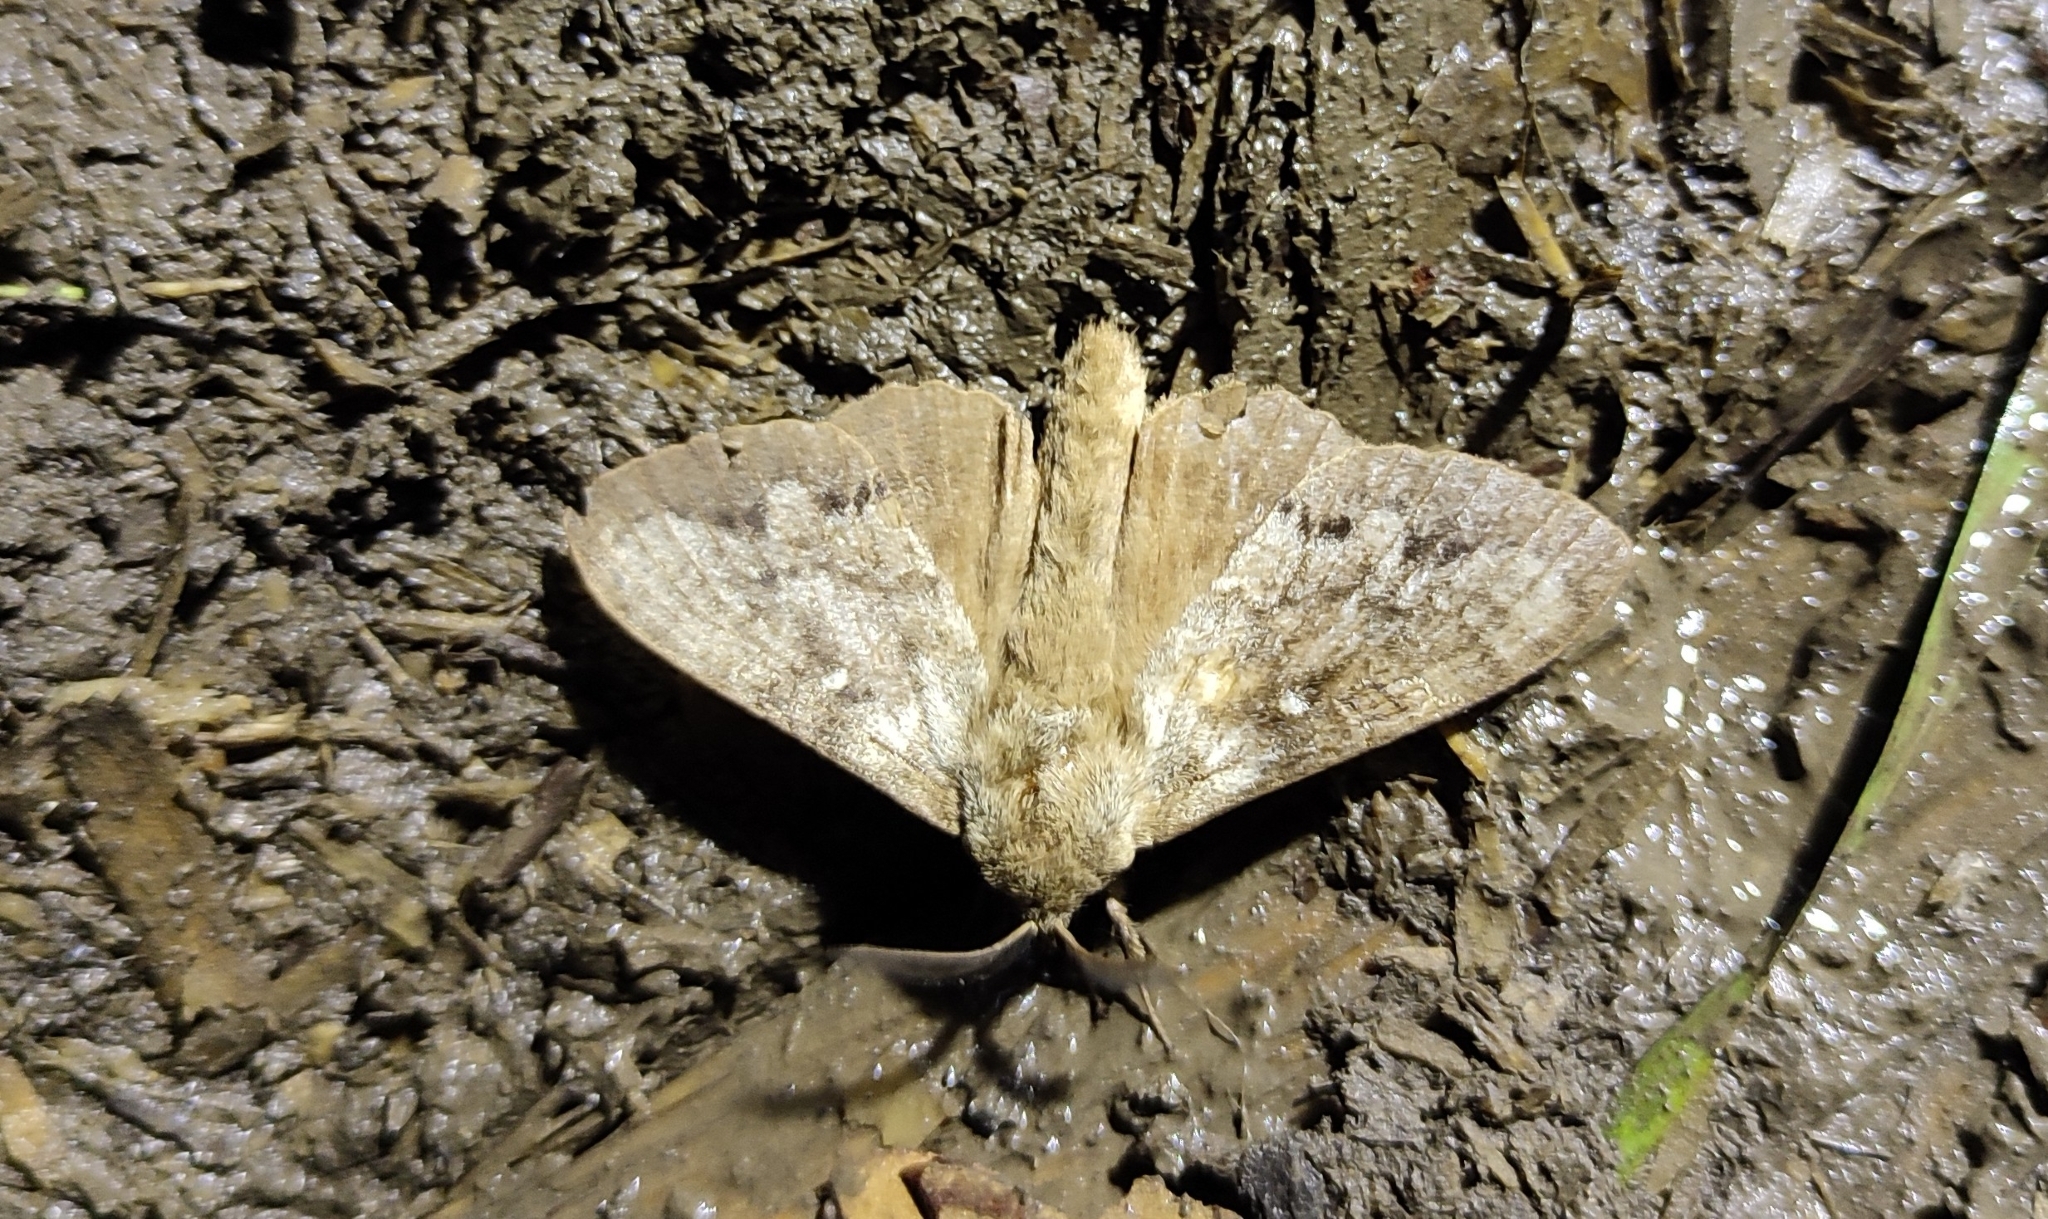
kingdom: Animalia
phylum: Arthropoda
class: Insecta
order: Lepidoptera
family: Lasiocampidae
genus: Dendrolimus
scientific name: Dendrolimus superans
